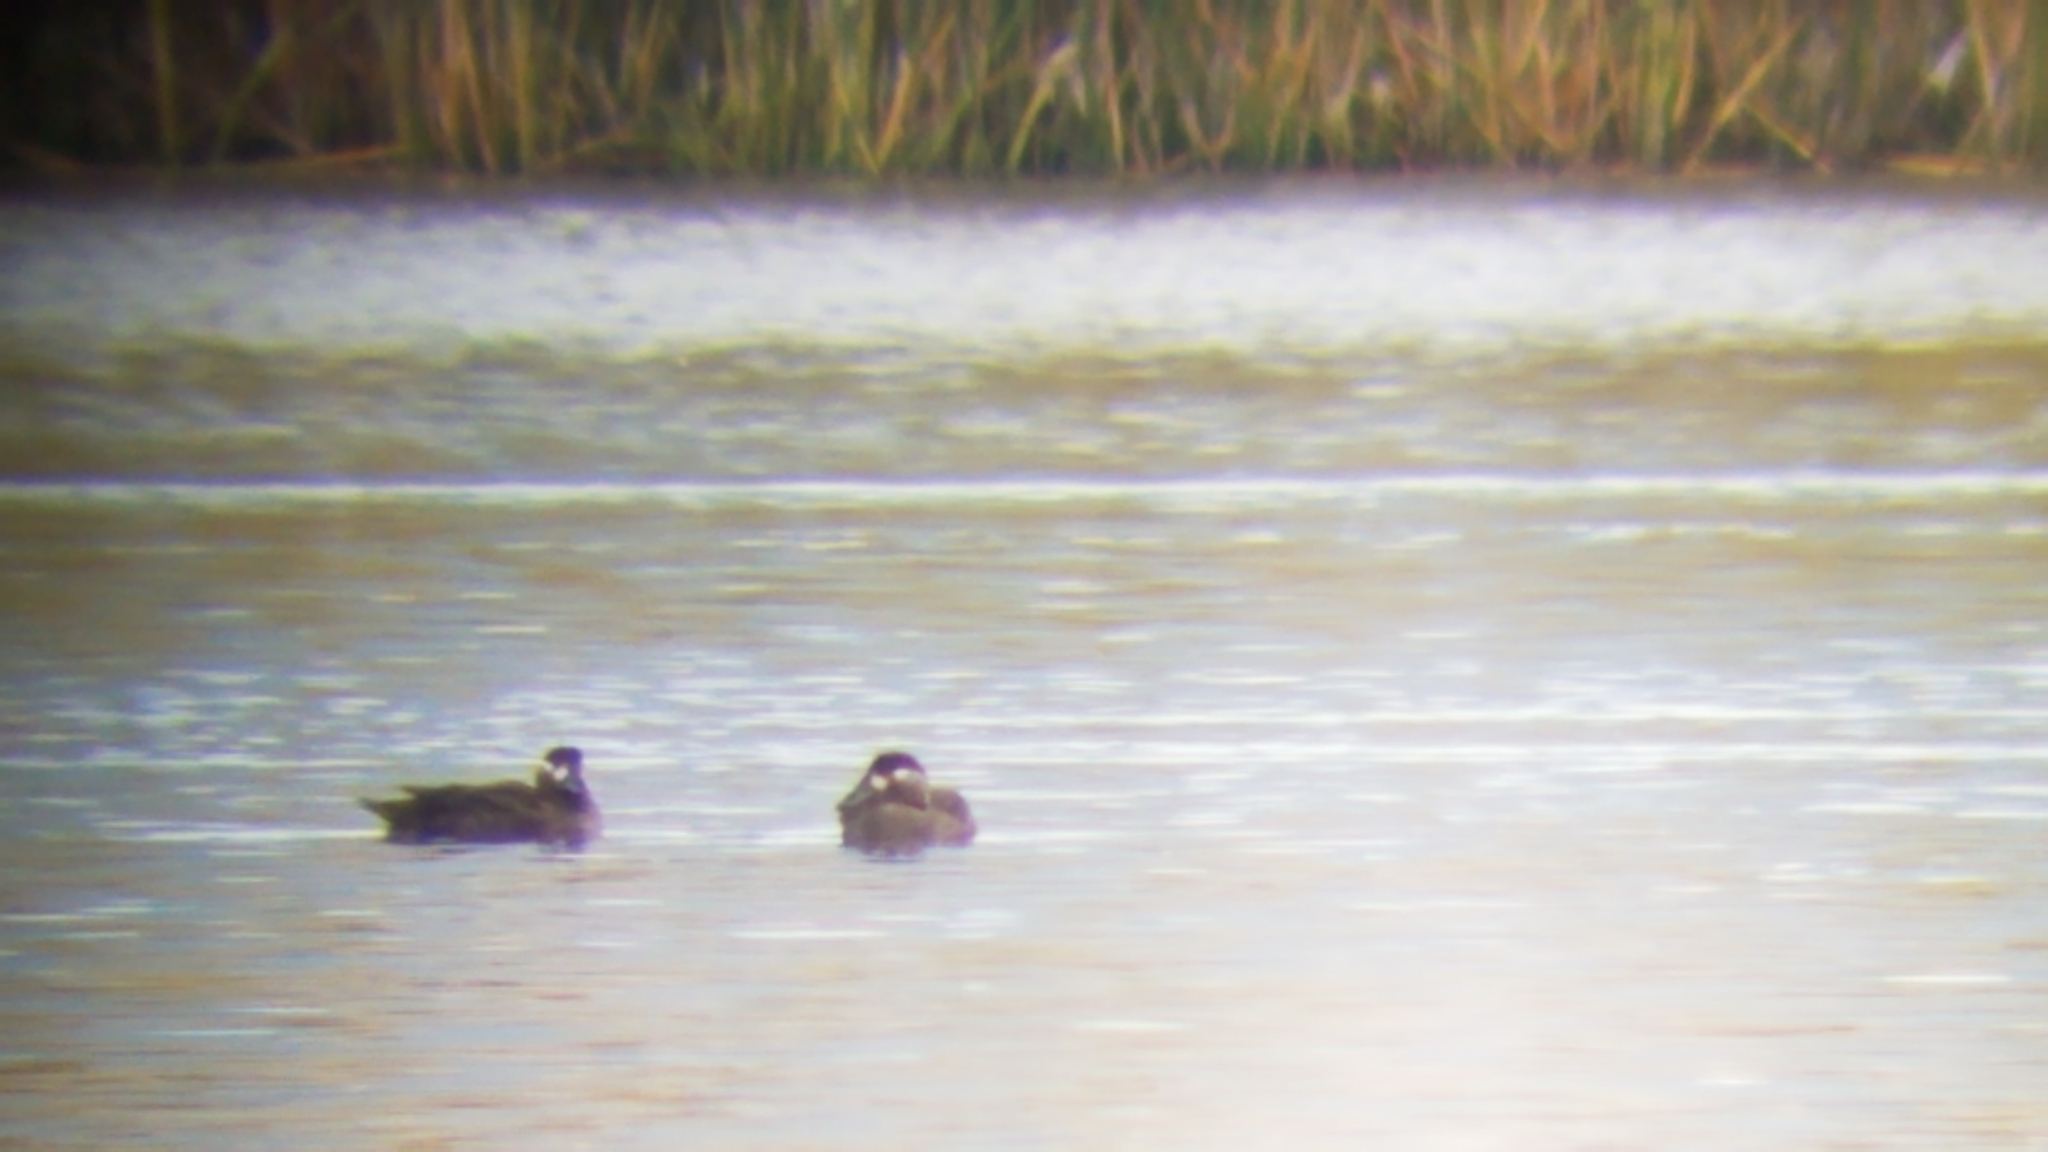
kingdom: Animalia
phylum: Chordata
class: Aves
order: Anseriformes
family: Anatidae
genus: Melanitta
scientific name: Melanitta perspicillata
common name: Surf scoter
